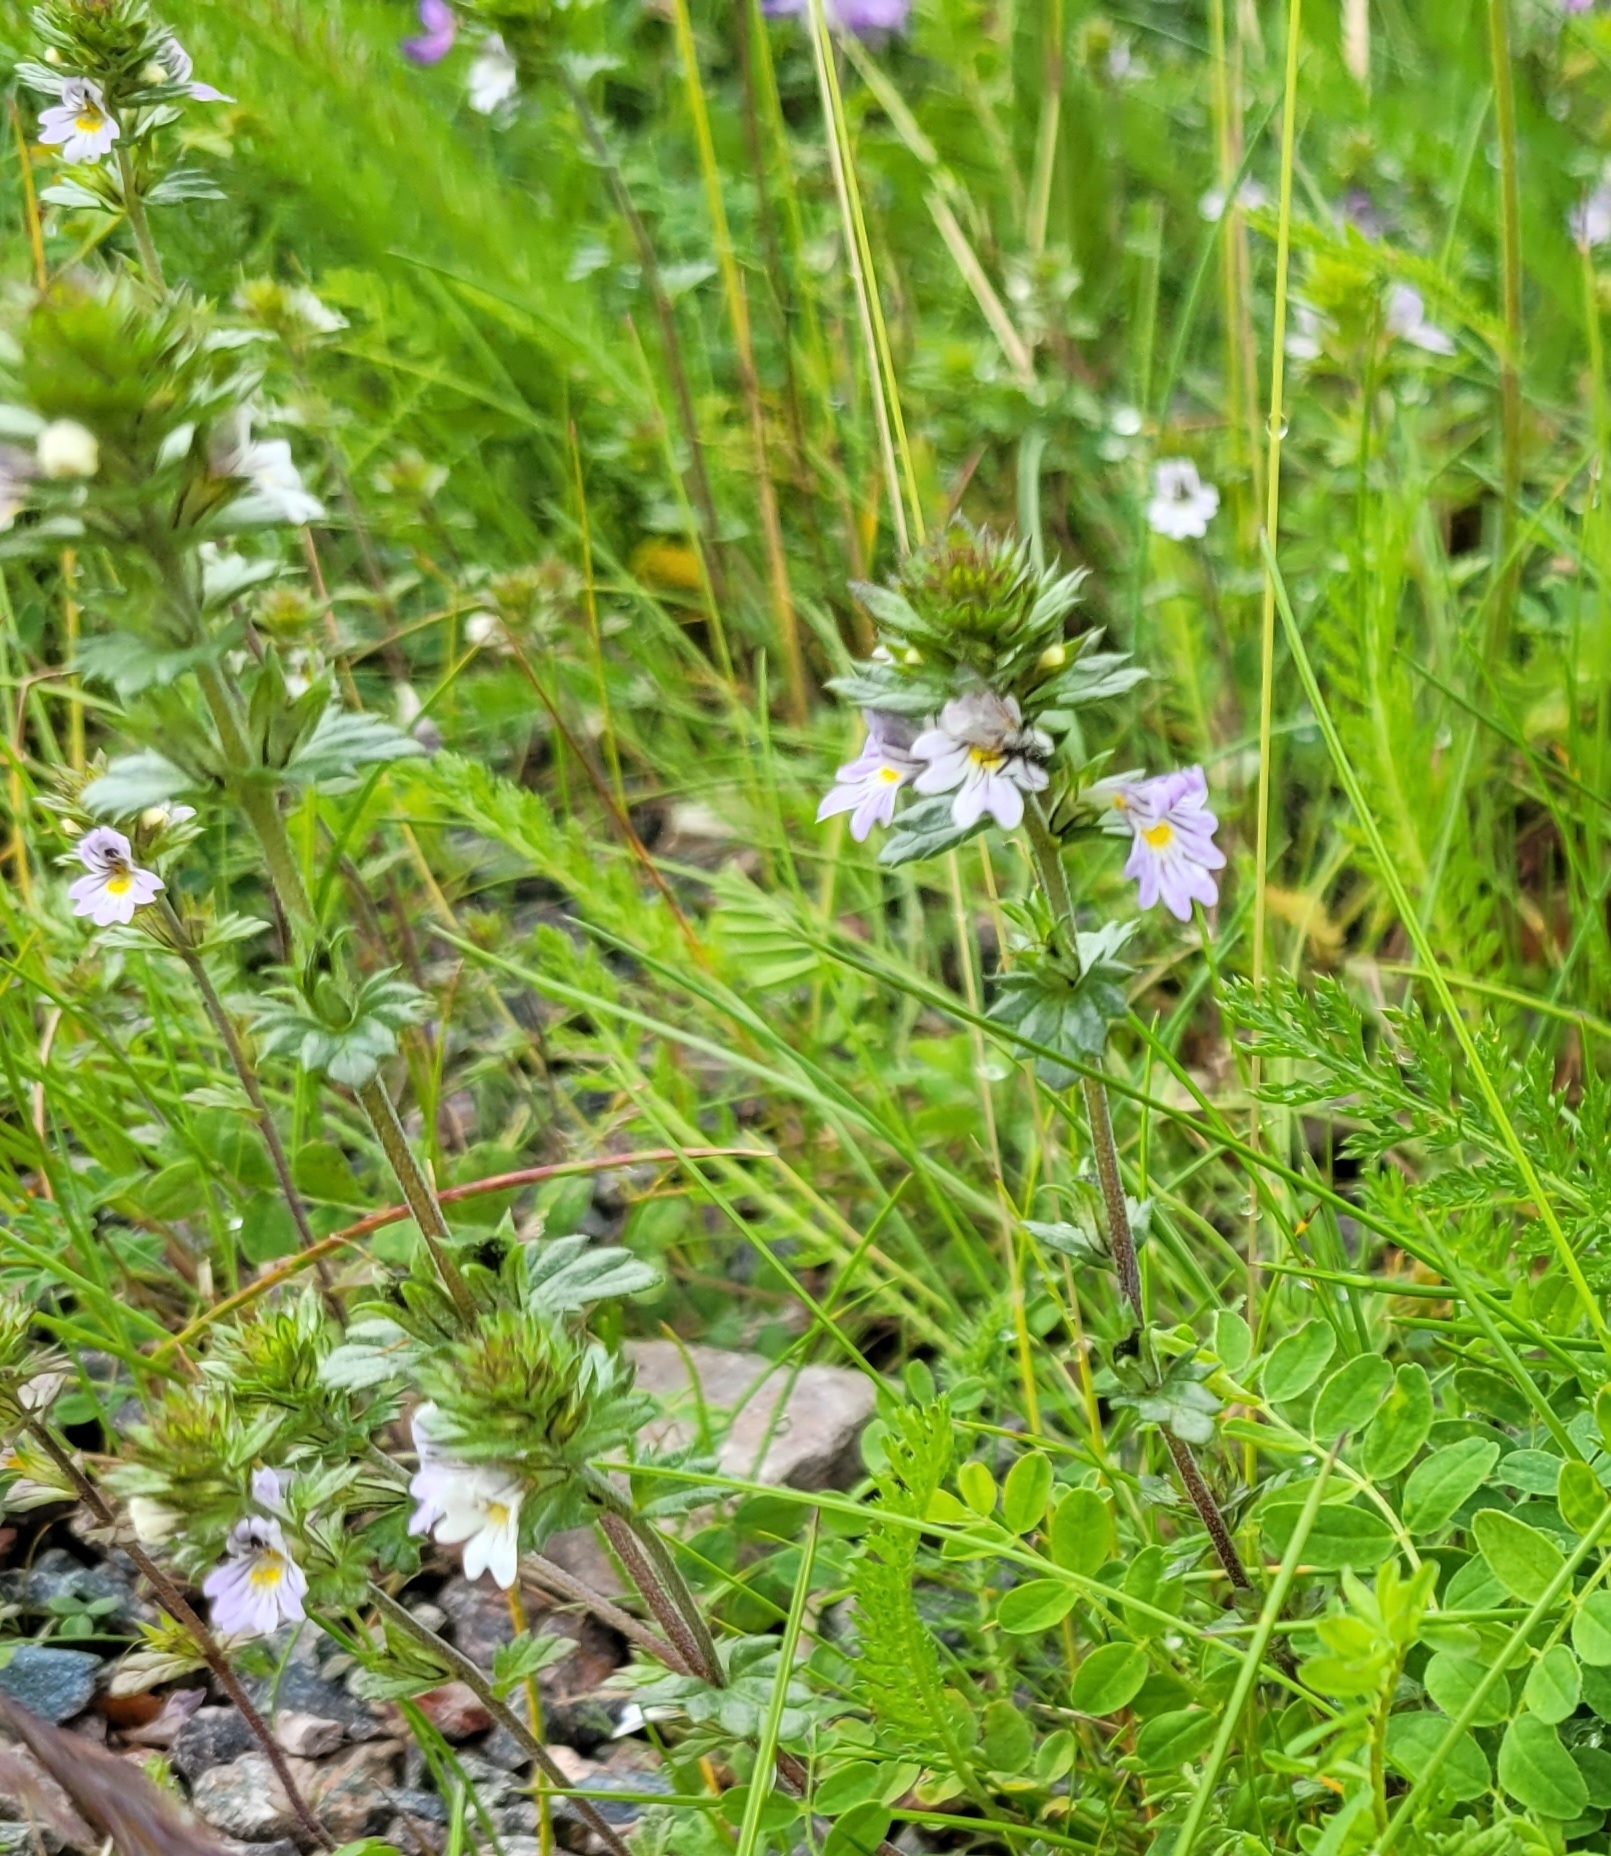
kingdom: Plantae
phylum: Tracheophyta
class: Magnoliopsida
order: Lamiales
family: Orobanchaceae
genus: Euphrasia
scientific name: Euphrasia stricta
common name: Drug eyebright
